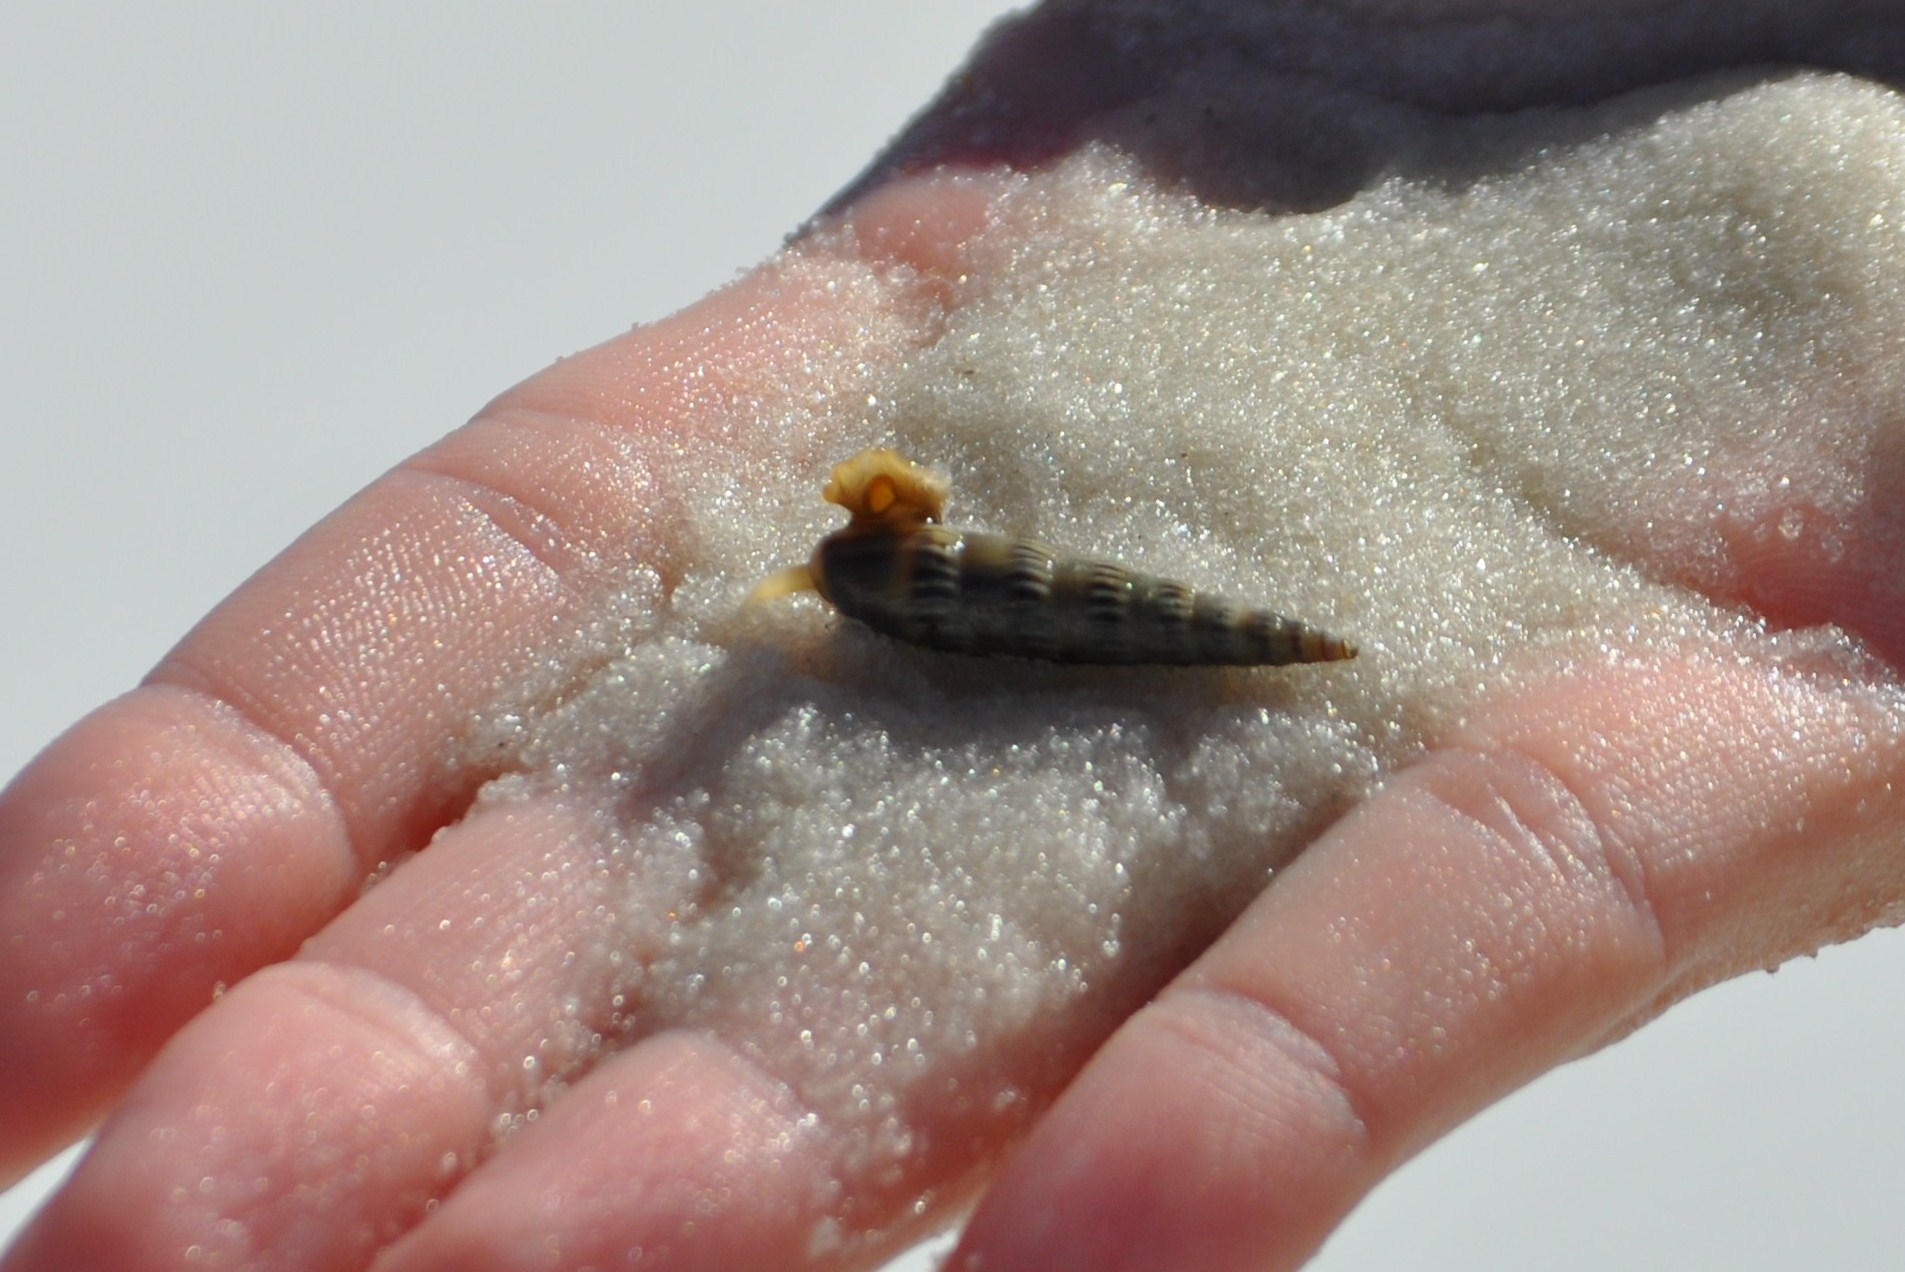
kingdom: Animalia
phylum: Mollusca
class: Gastropoda
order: Neogastropoda
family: Terebridae
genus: Hastula
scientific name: Hastula salleana
